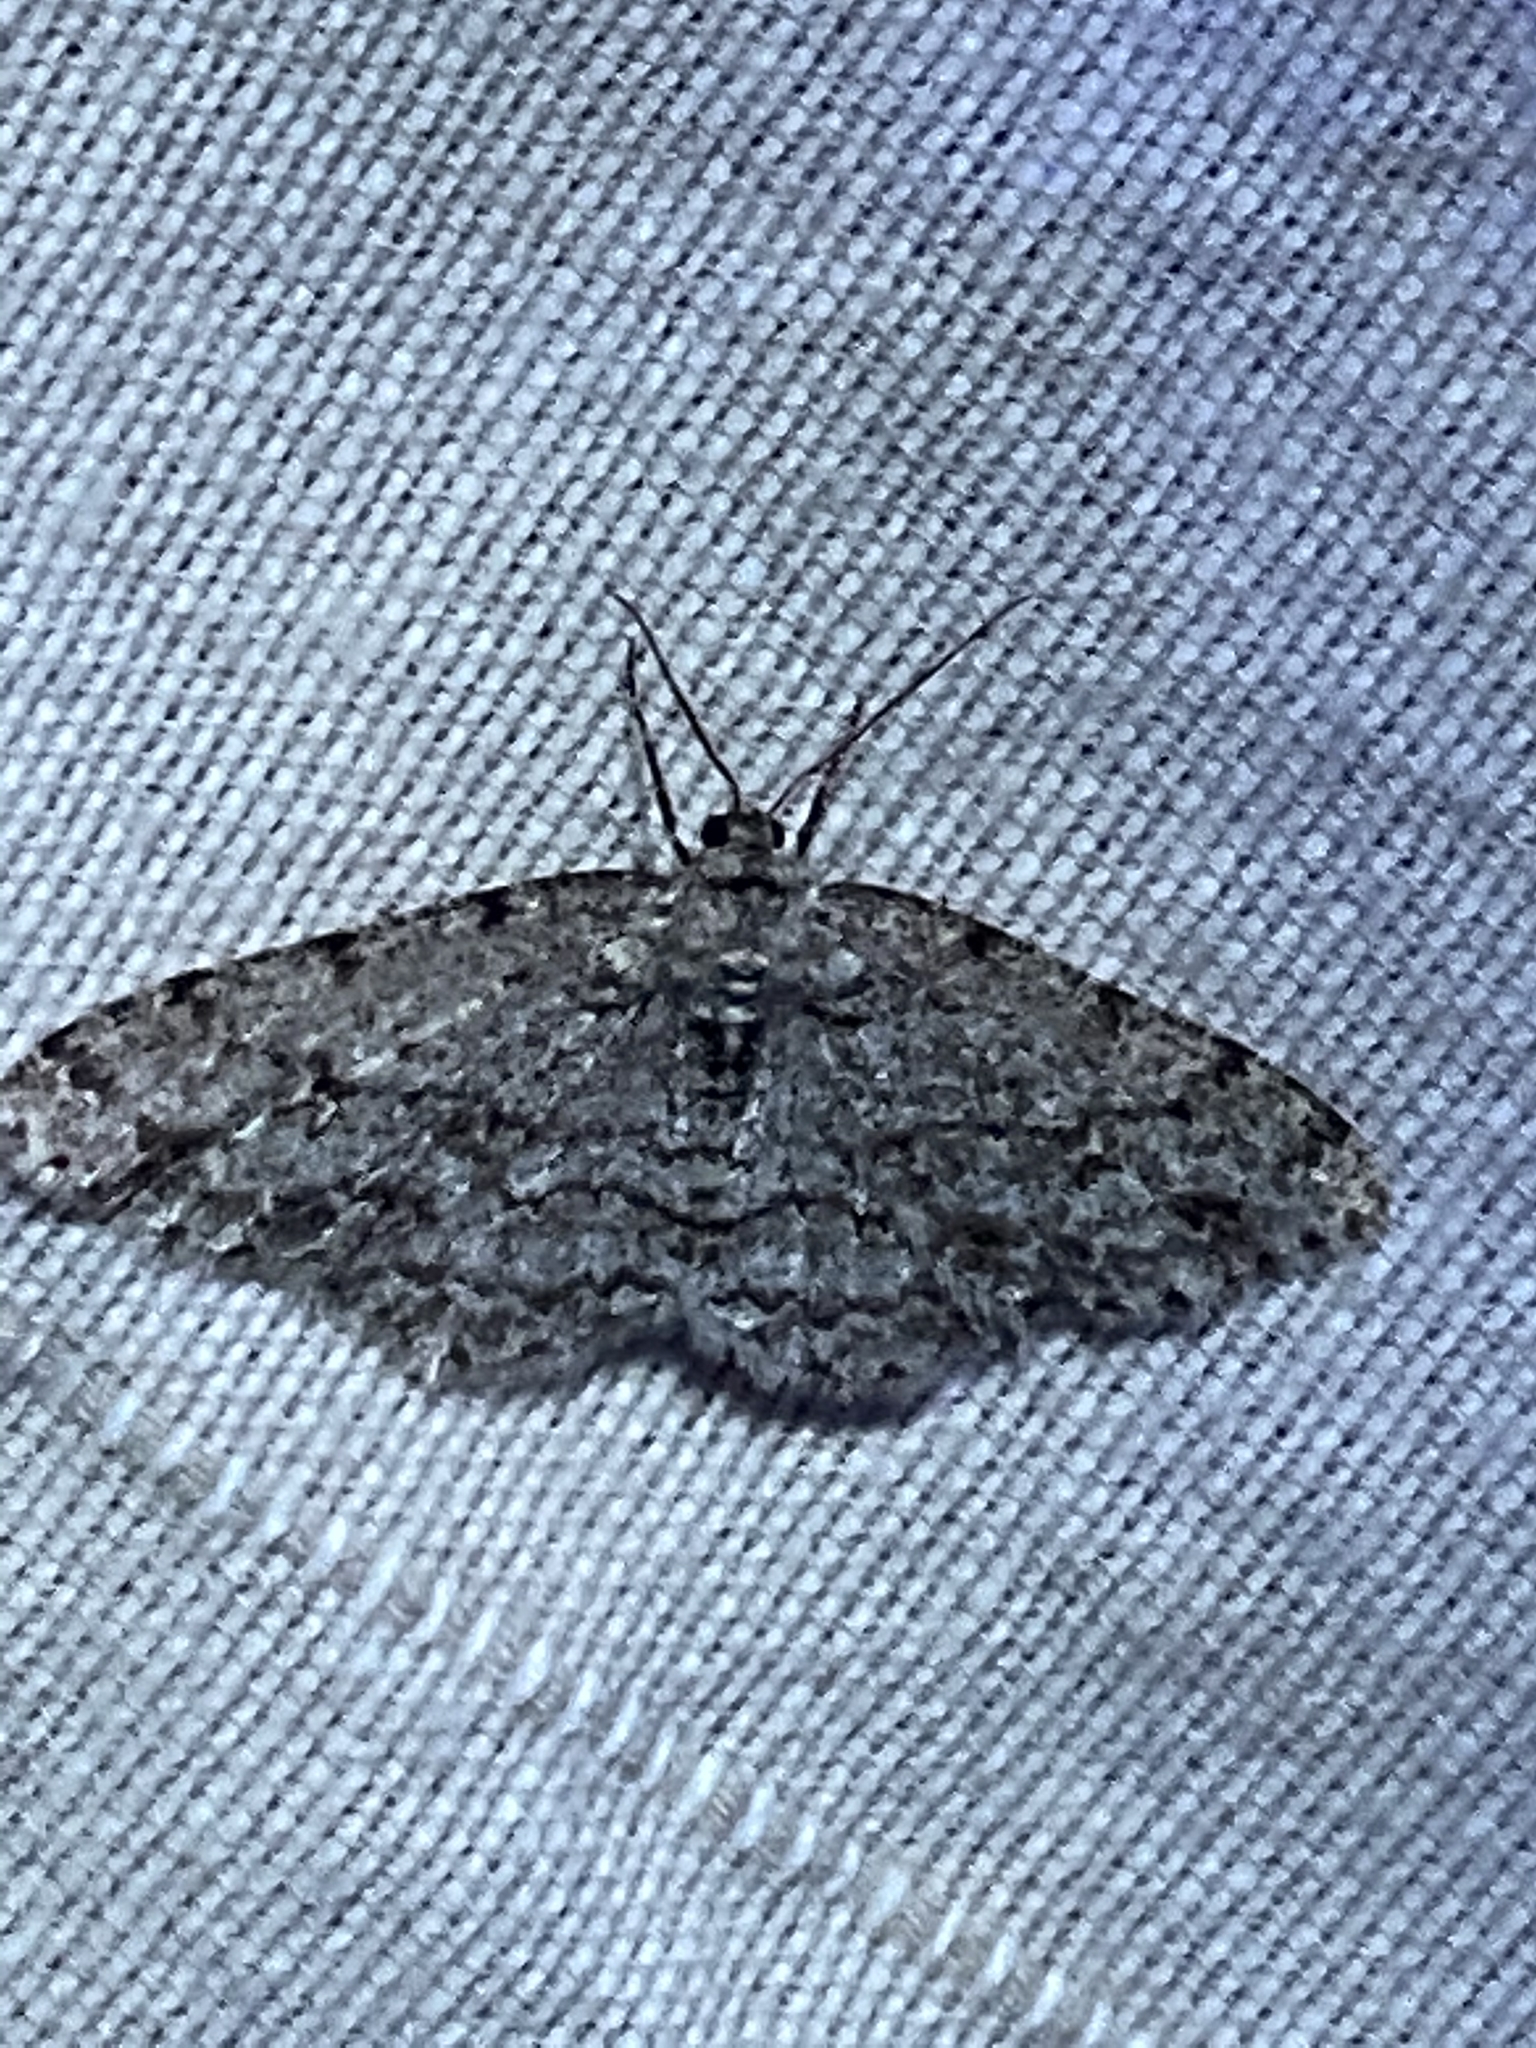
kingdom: Animalia
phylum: Arthropoda
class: Insecta
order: Lepidoptera
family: Geometridae
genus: Ectropis
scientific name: Ectropis crepuscularia
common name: Engrailed
